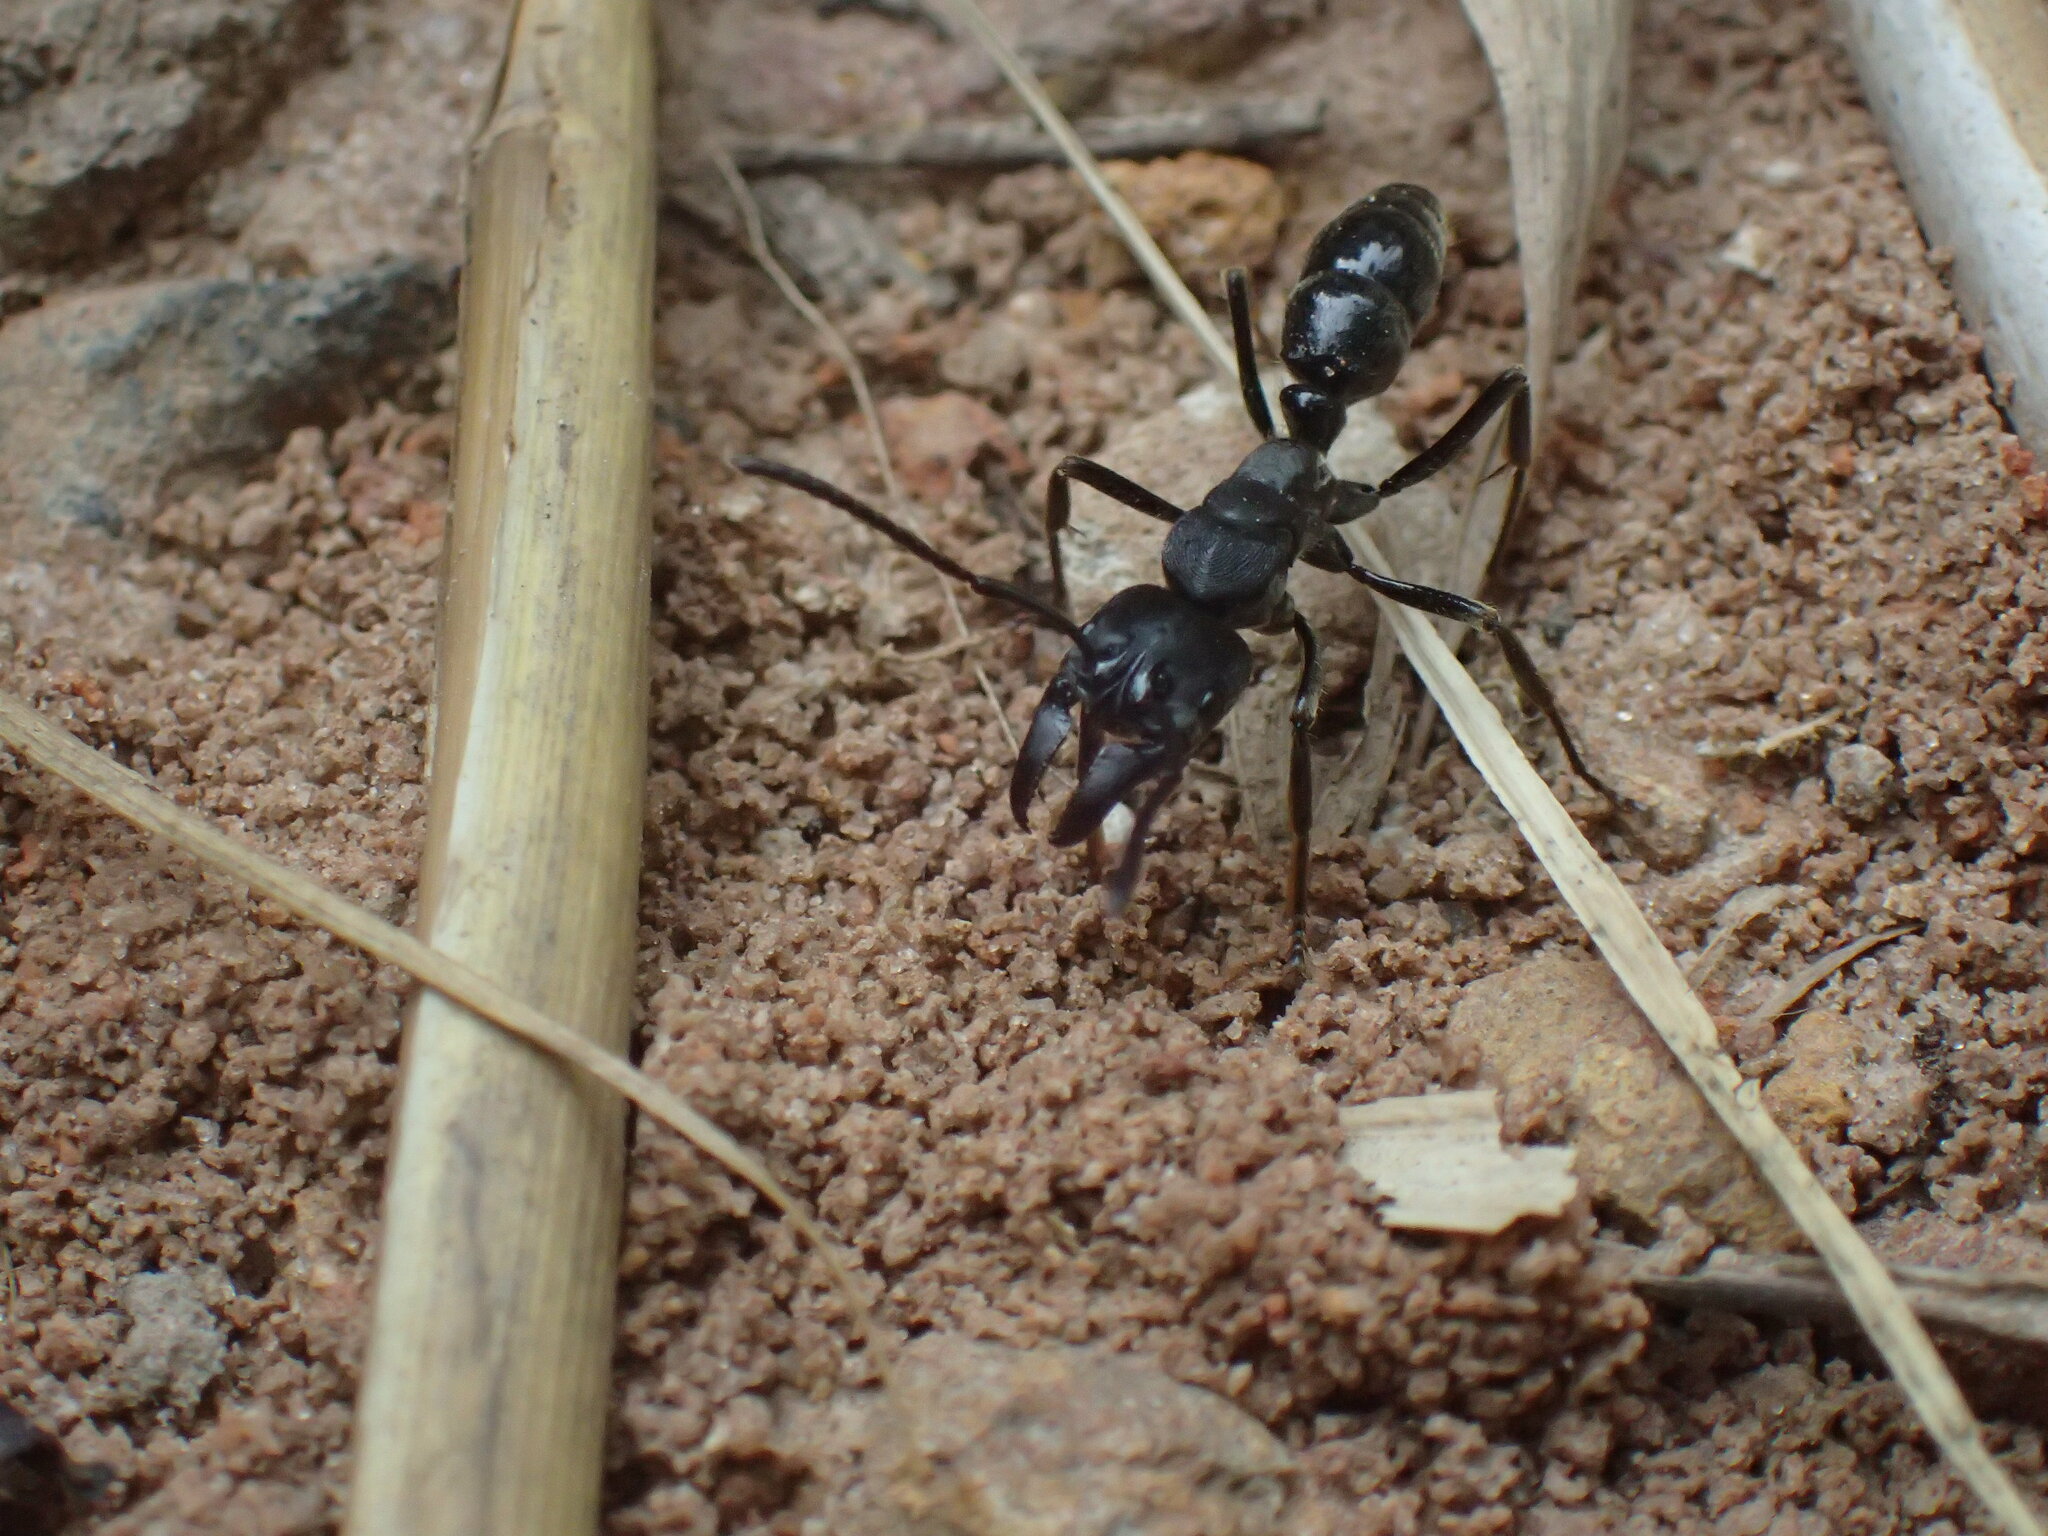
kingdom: Animalia
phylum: Arthropoda
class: Insecta
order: Hymenoptera
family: Formicidae
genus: Paltothyreus
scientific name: Paltothyreus tarsatus
